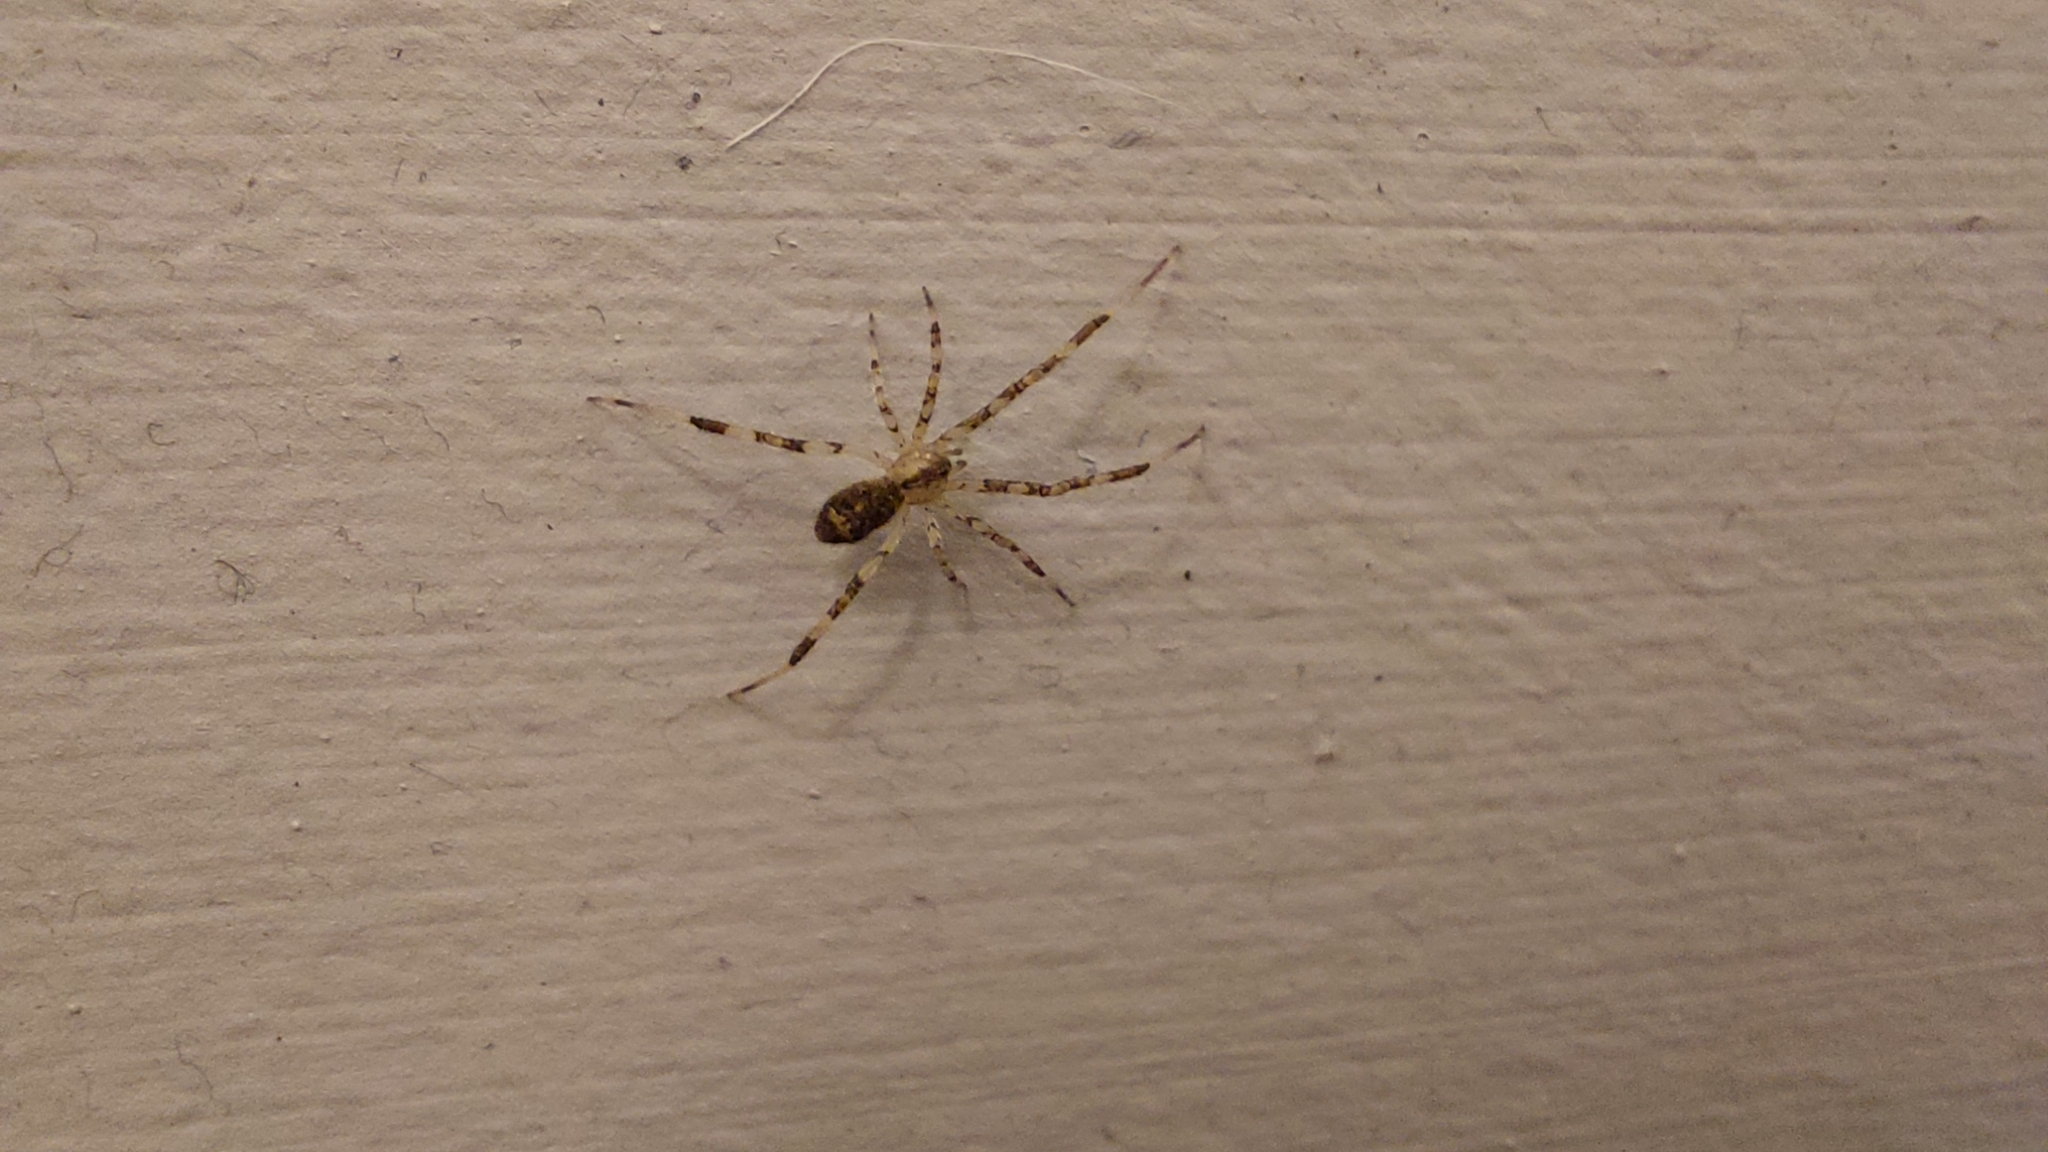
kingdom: Animalia
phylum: Arthropoda
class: Arachnida
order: Araneae
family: Theridiidae
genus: Episinus
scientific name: Episinus maculipes
